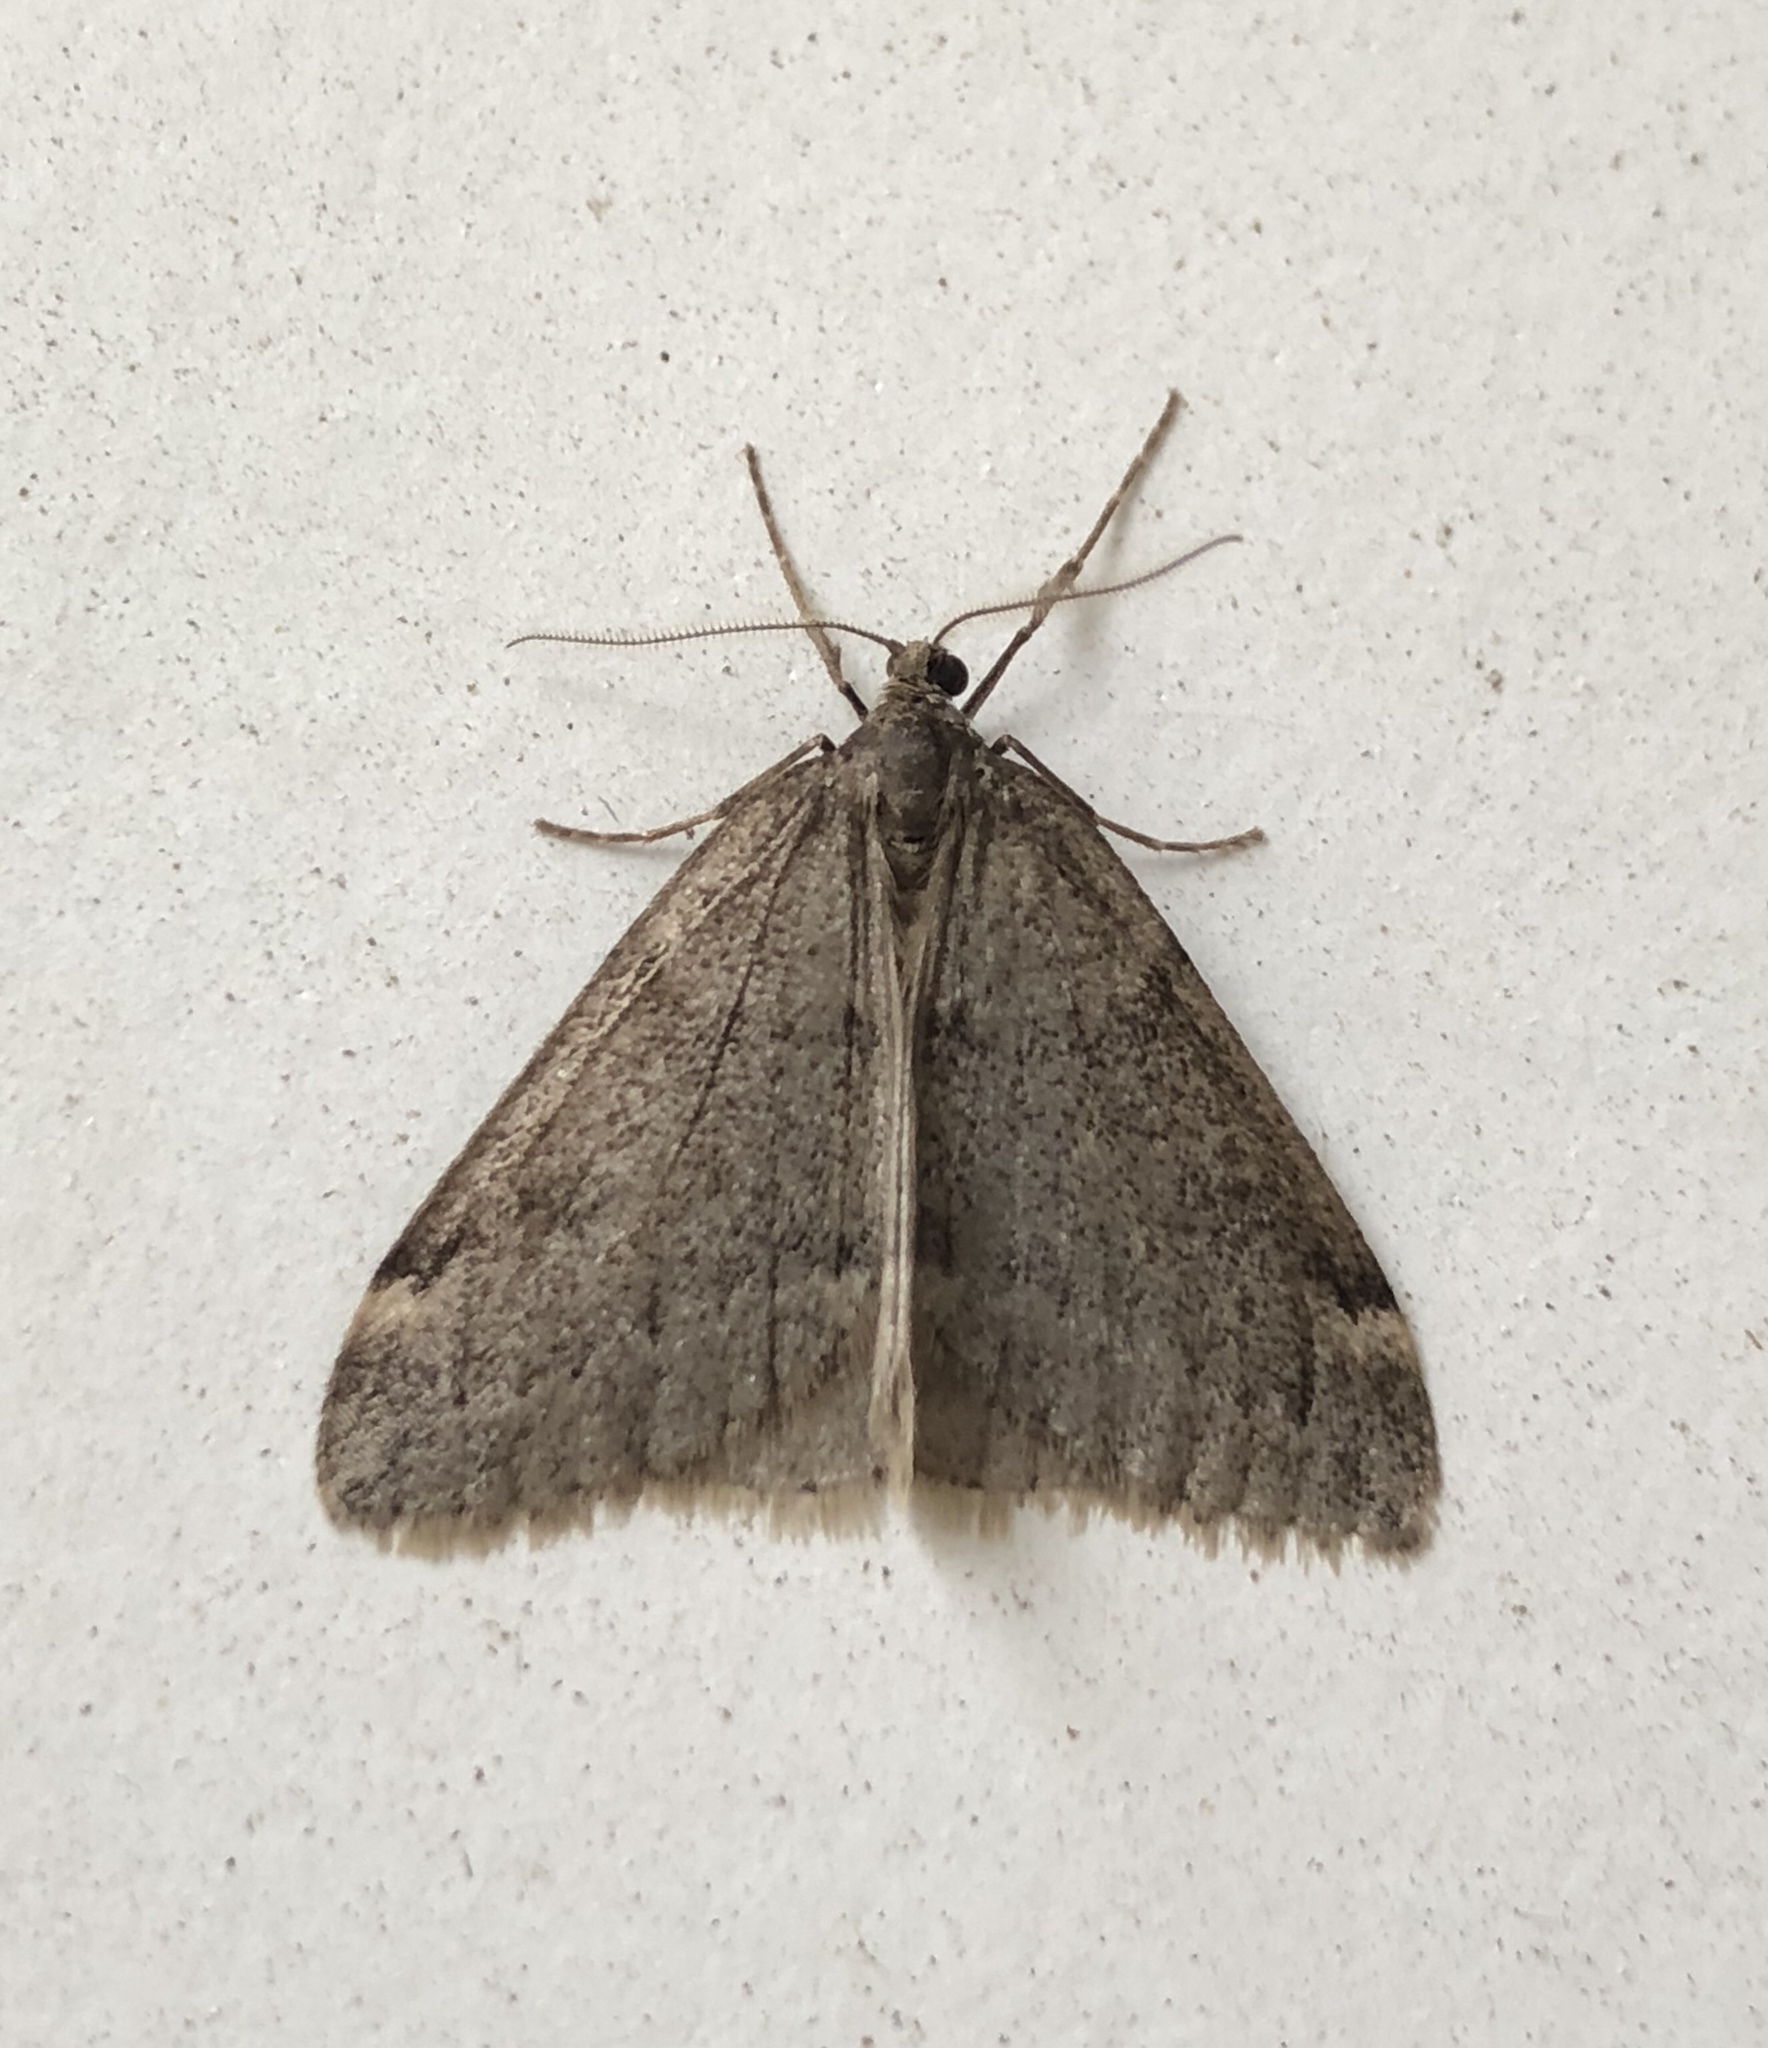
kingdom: Animalia
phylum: Arthropoda
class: Insecta
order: Lepidoptera
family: Geometridae
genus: Alsophila
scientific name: Alsophila pometaria
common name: Fall cankerworm
